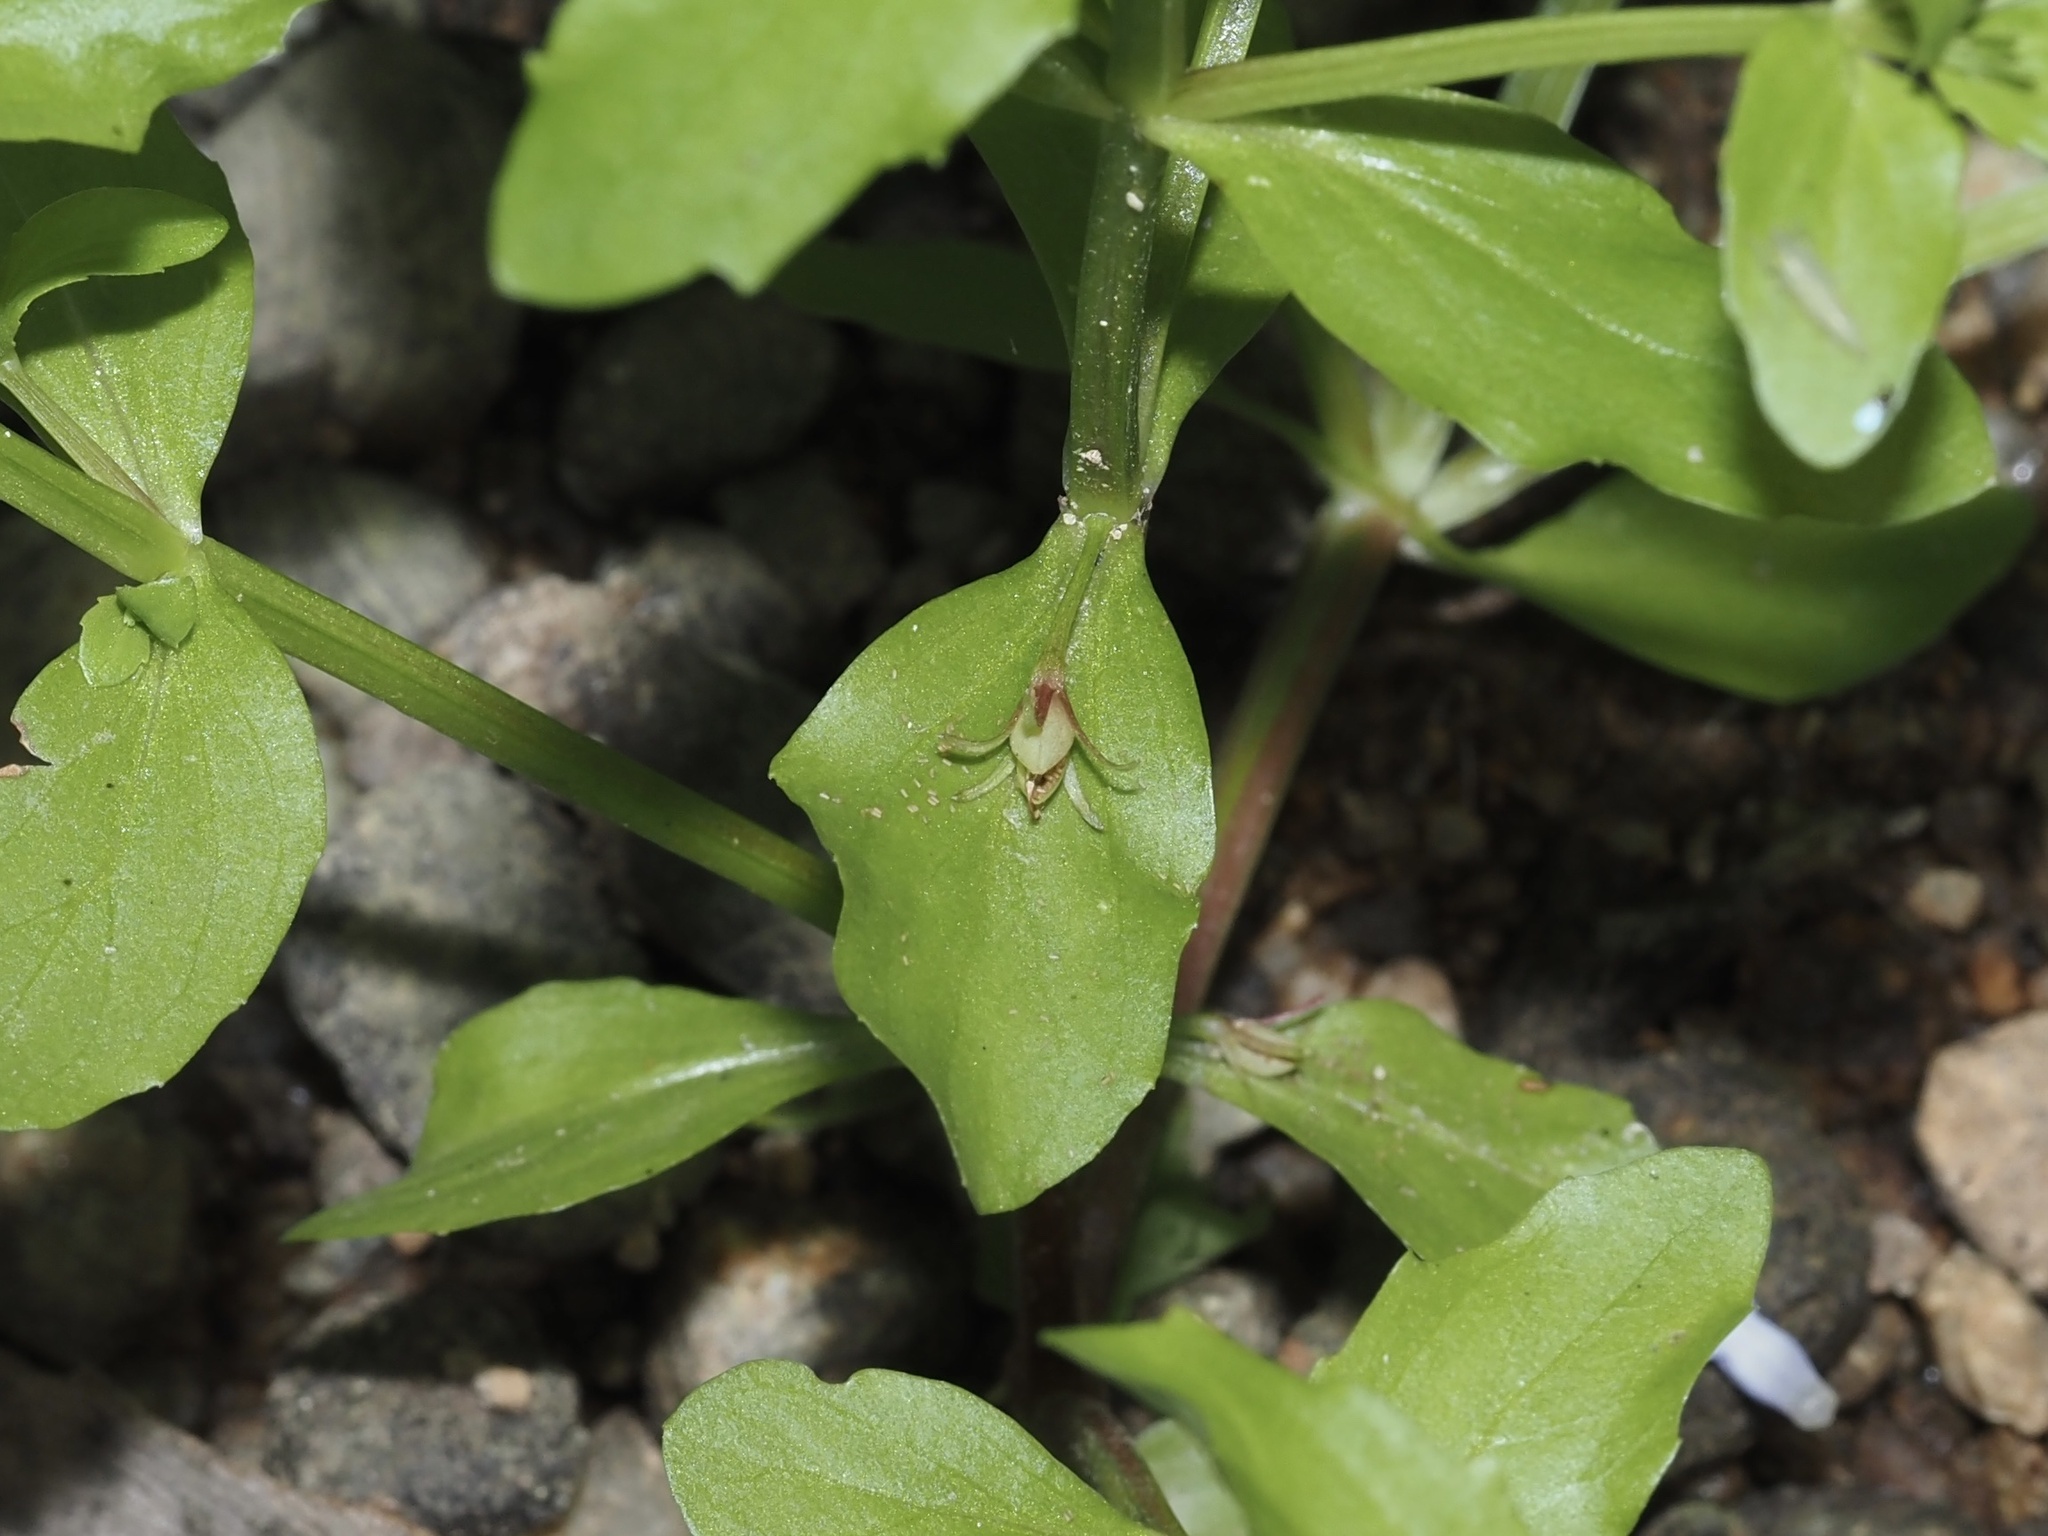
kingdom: Plantae
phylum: Tracheophyta
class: Magnoliopsida
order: Lamiales
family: Linderniaceae
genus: Lindernia
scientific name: Lindernia dubia
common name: Annual false pimpernel
